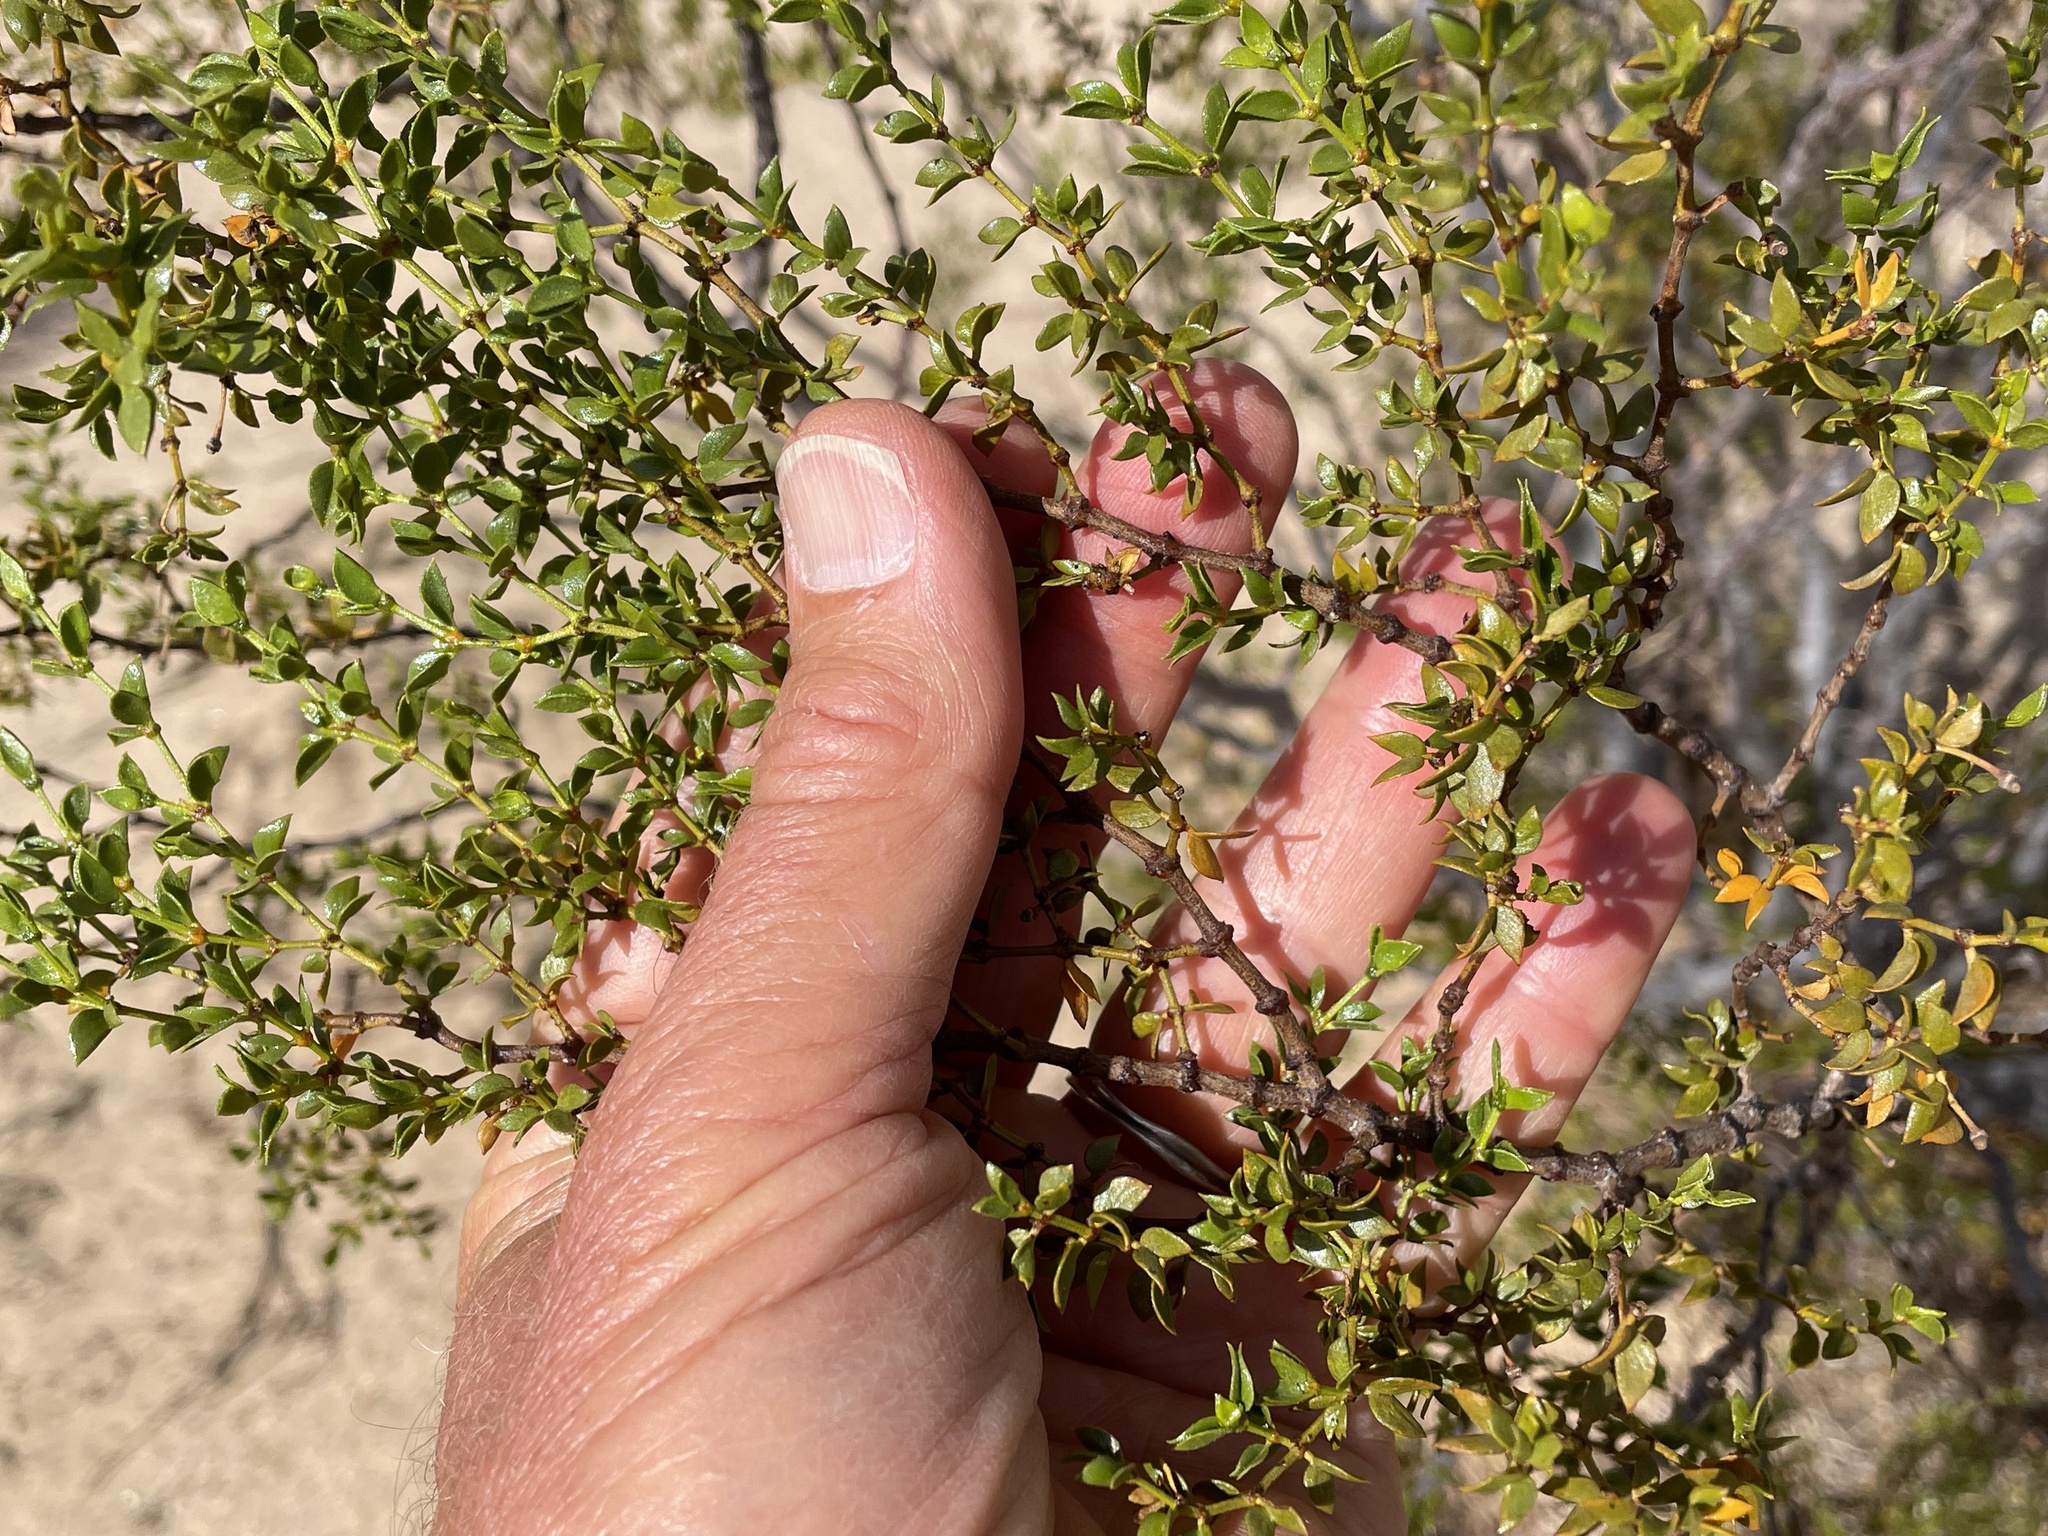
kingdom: Plantae
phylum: Tracheophyta
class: Magnoliopsida
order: Zygophyllales
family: Zygophyllaceae
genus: Larrea
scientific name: Larrea tridentata
